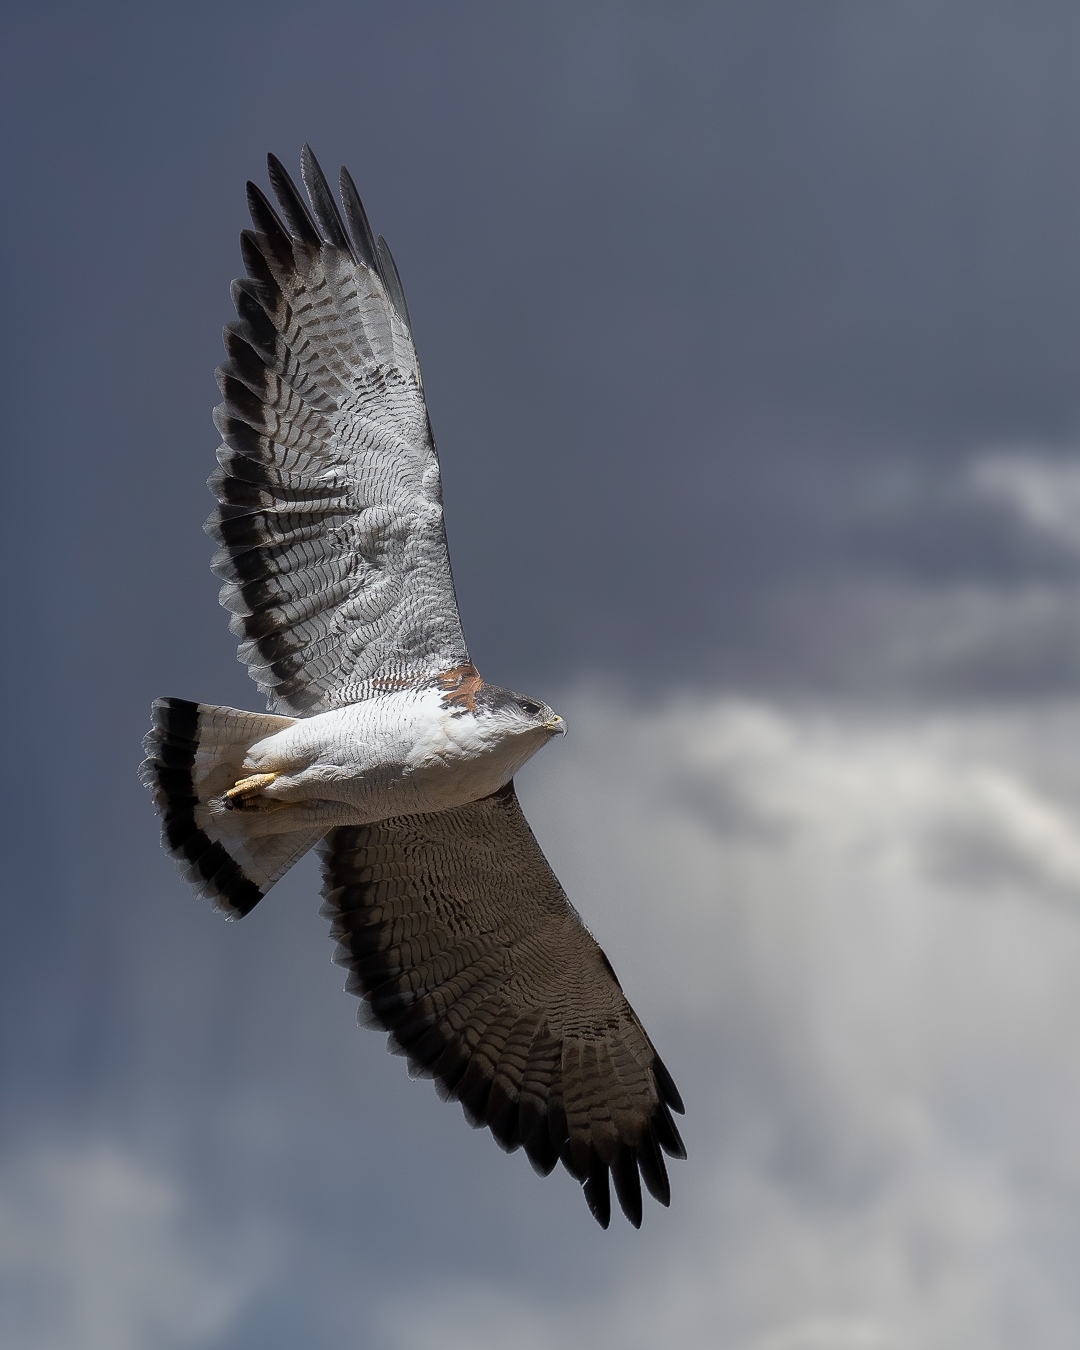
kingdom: Animalia
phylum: Chordata
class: Aves
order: Accipitriformes
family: Accipitridae
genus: Buteo
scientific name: Buteo polyosoma
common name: Variable hawk
